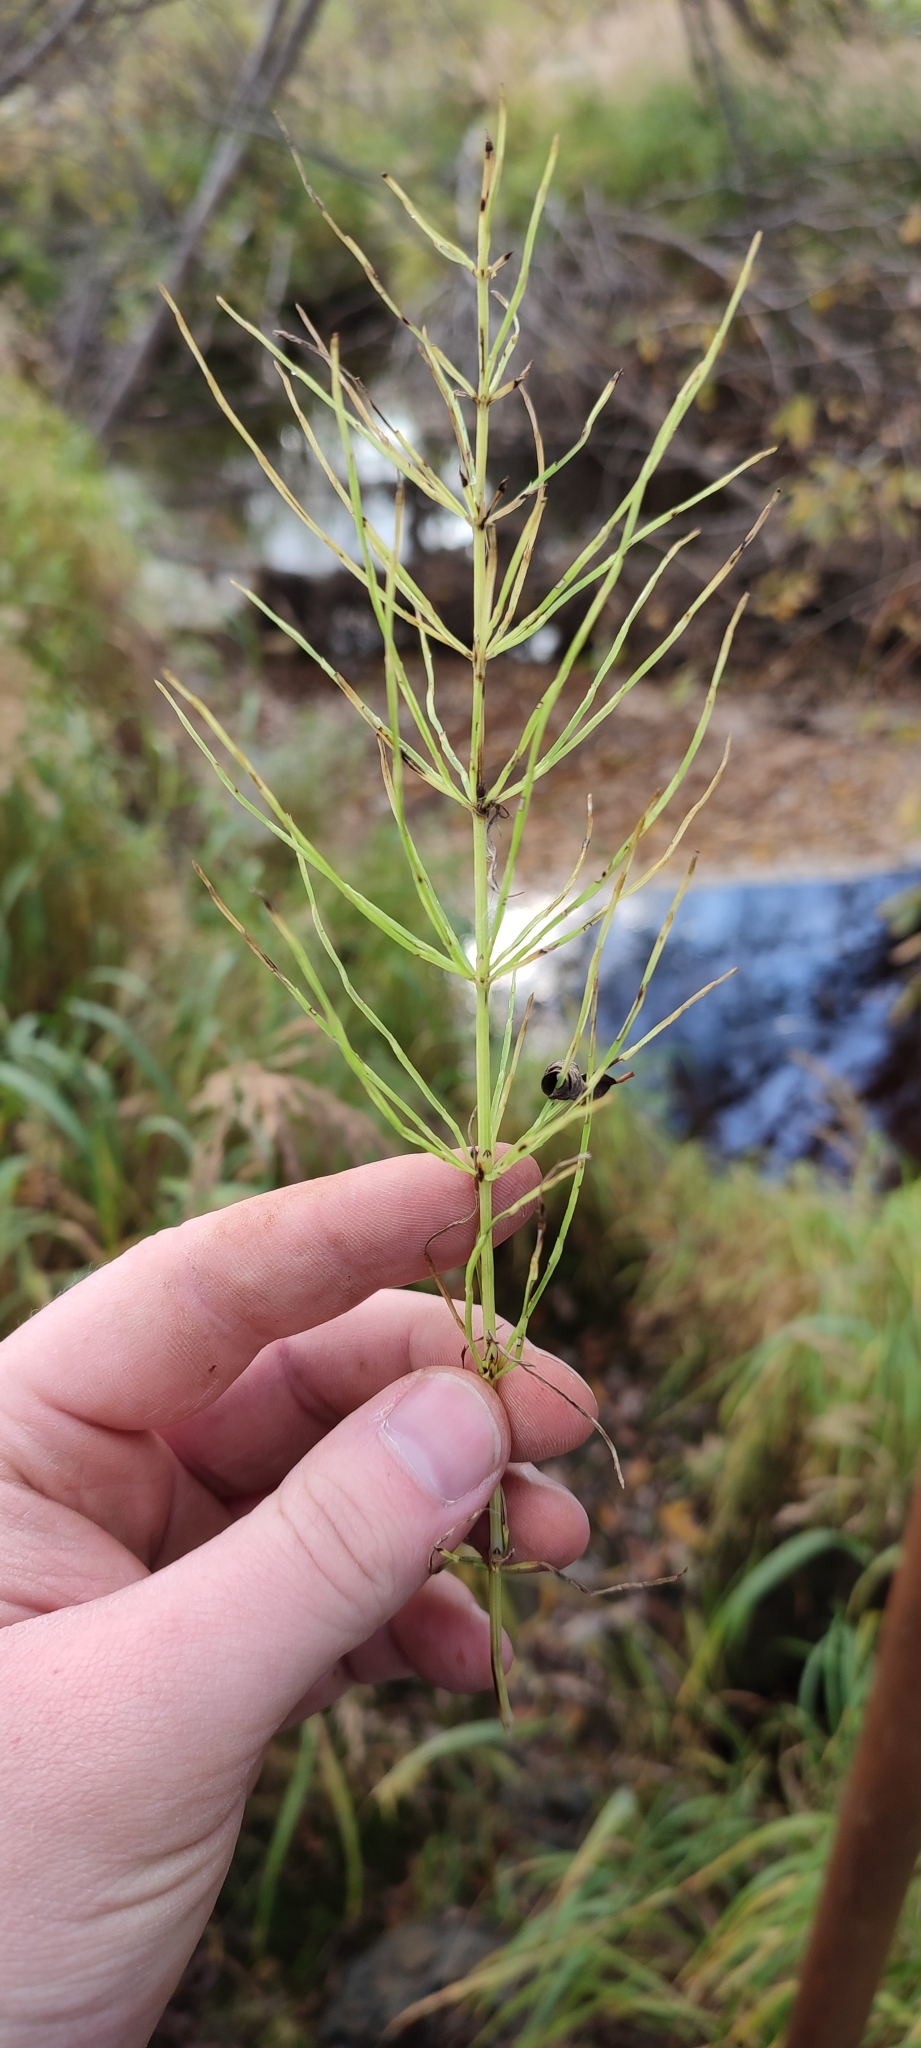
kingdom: Plantae
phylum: Tracheophyta
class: Polypodiopsida
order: Equisetales
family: Equisetaceae
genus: Equisetum
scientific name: Equisetum palustre
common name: Marsh horsetail
